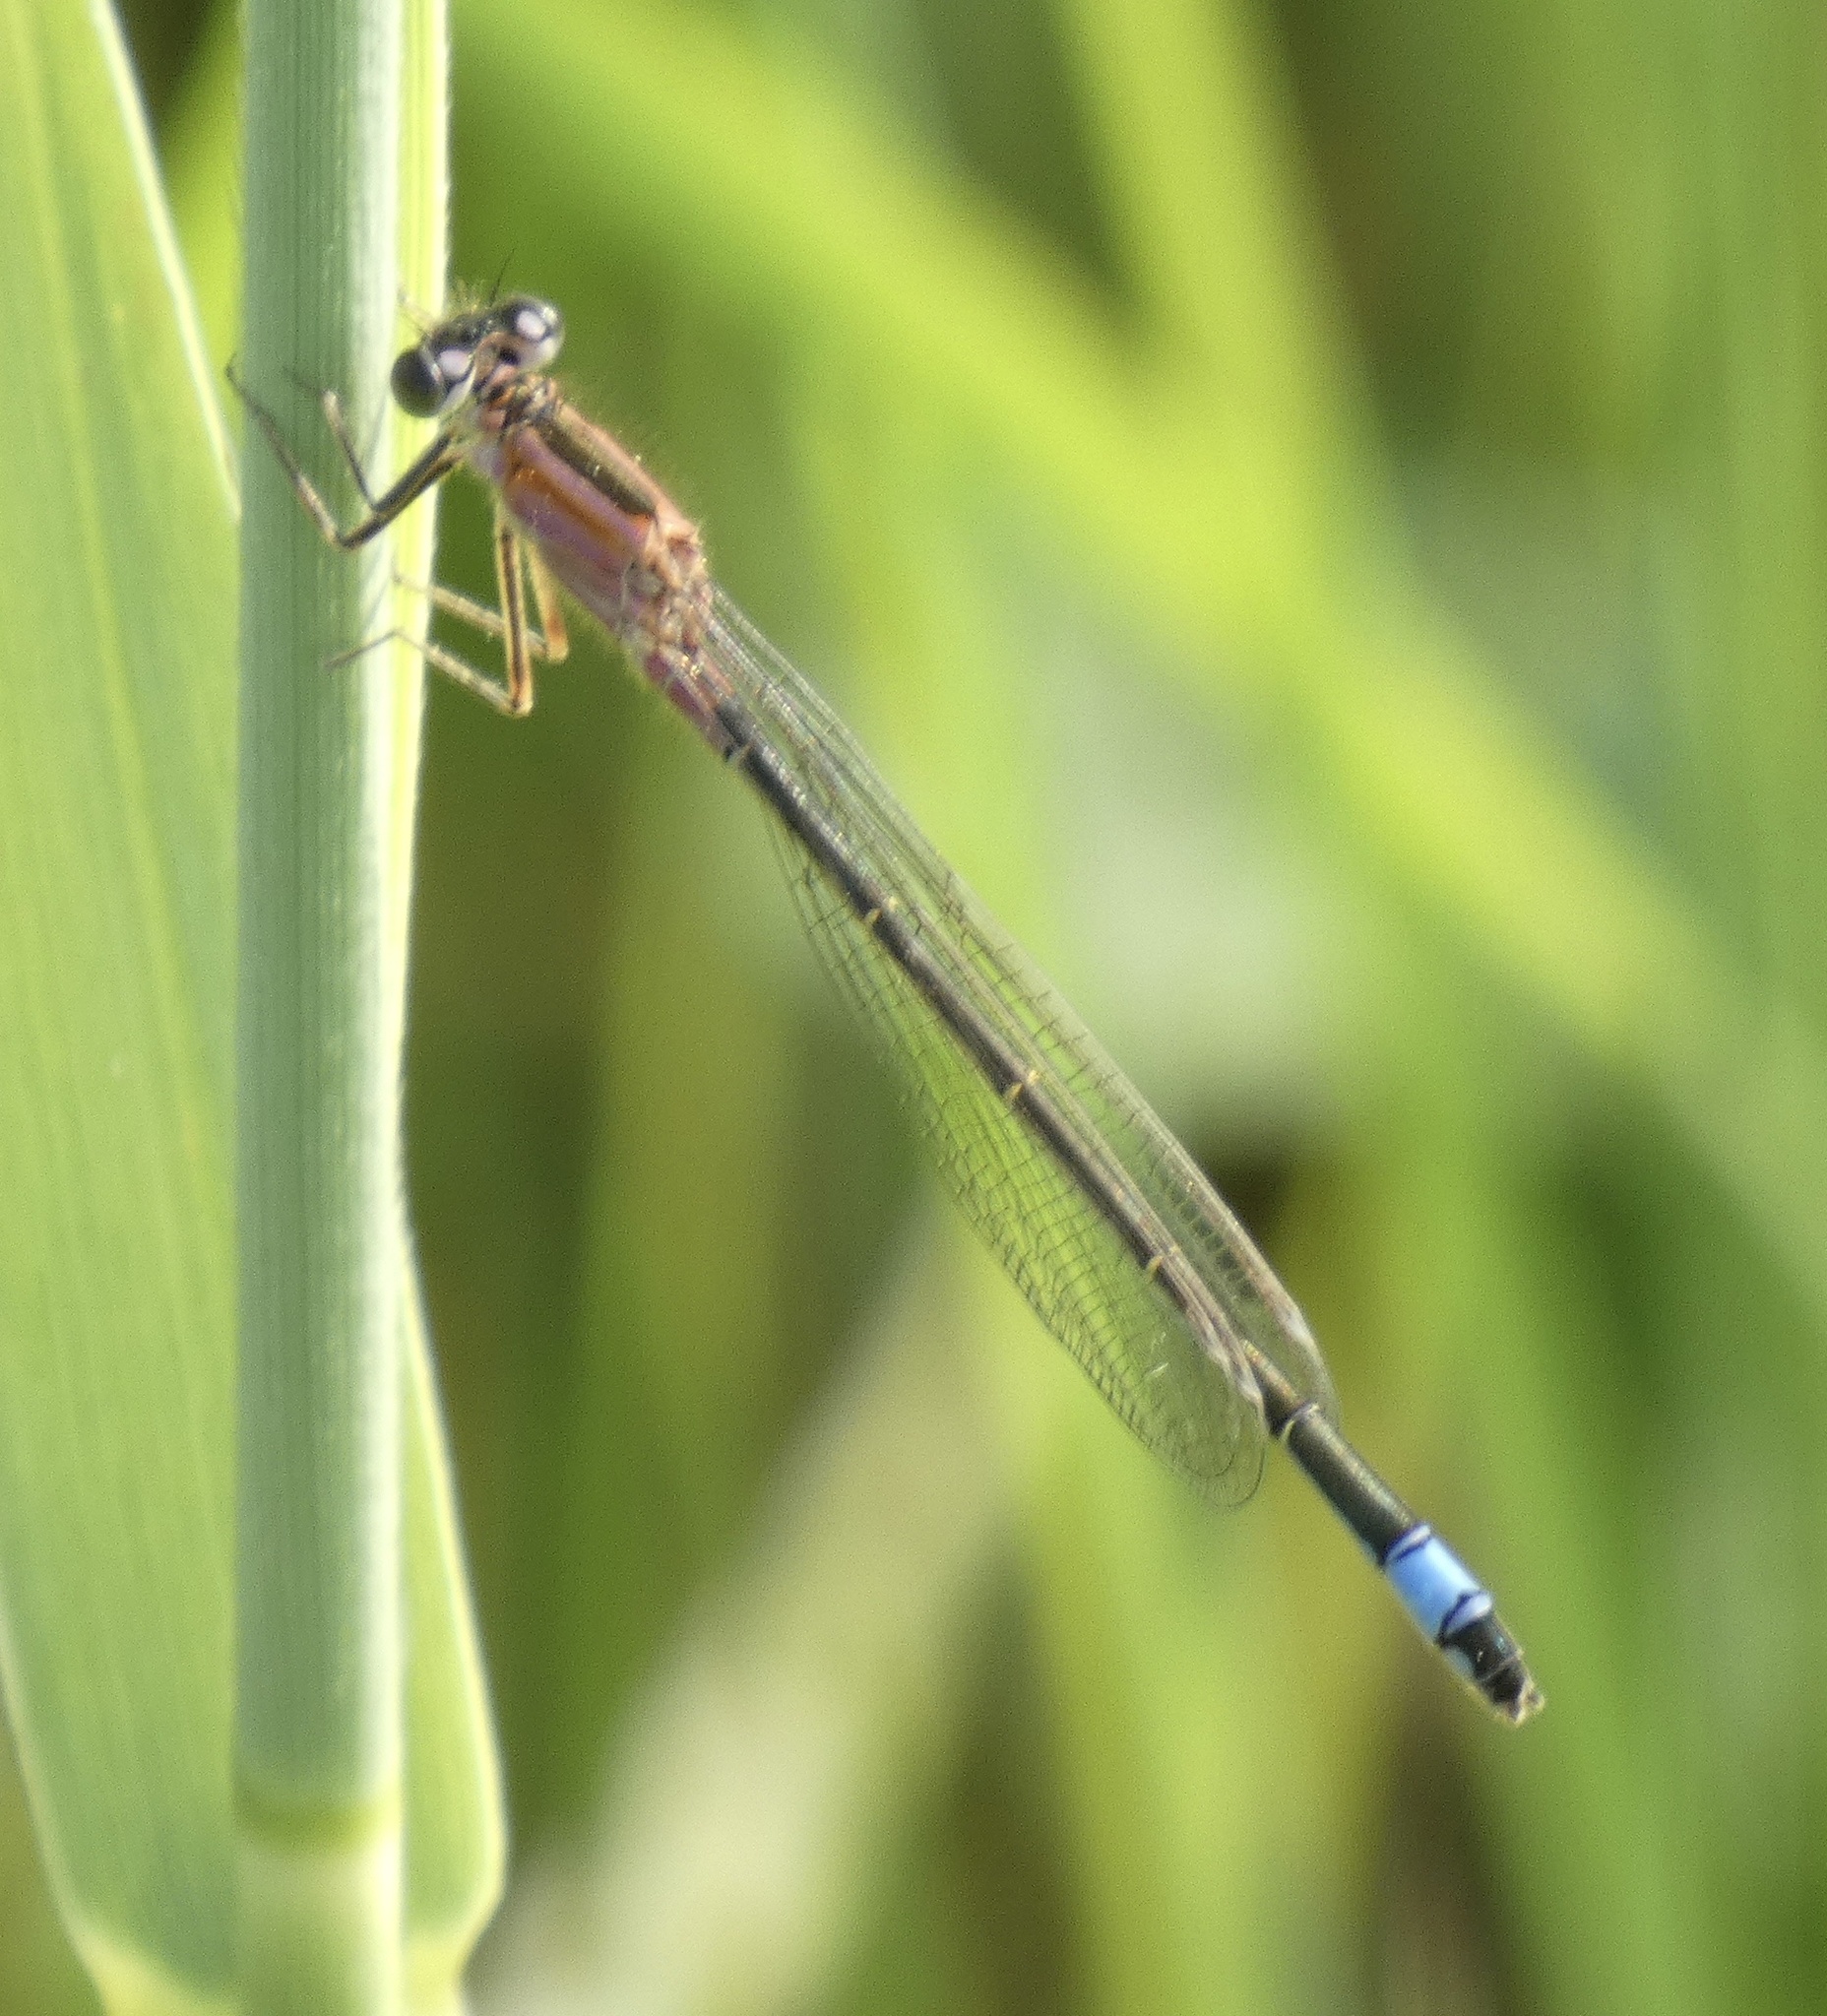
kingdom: Animalia
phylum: Arthropoda
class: Insecta
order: Odonata
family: Coenagrionidae
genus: Ischnura
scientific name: Ischnura elegans
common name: Blue-tailed damselfly
